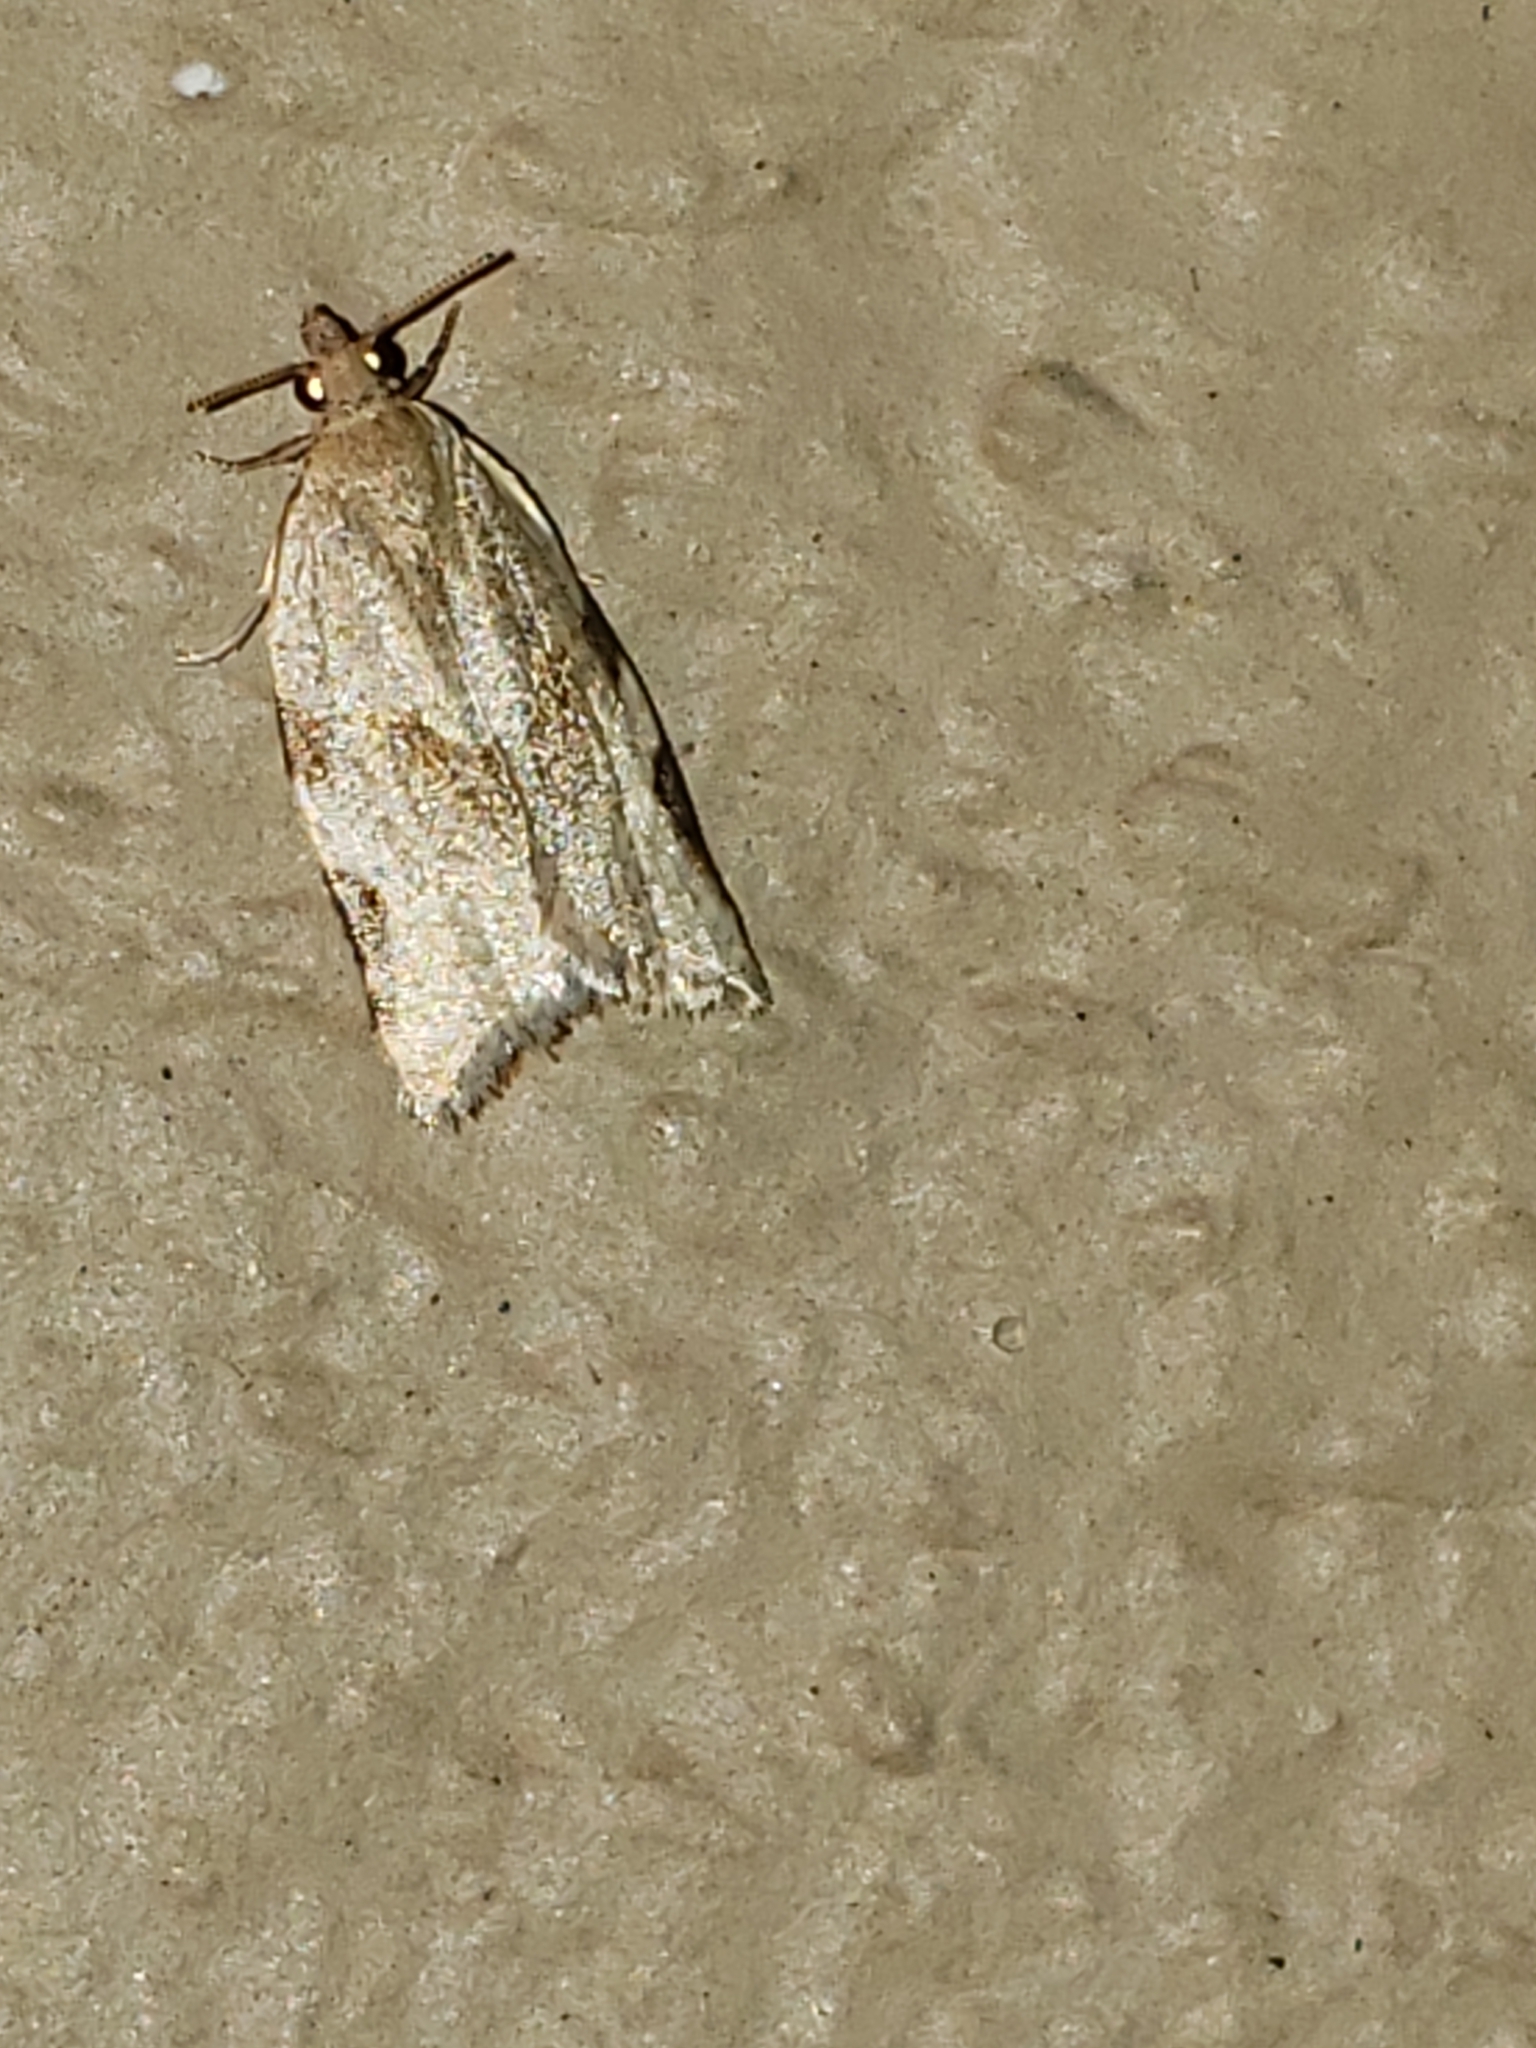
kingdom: Animalia
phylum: Arthropoda
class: Insecta
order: Lepidoptera
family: Tortricidae
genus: Clepsis
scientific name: Clepsis virescana
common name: Greenish apple moth
